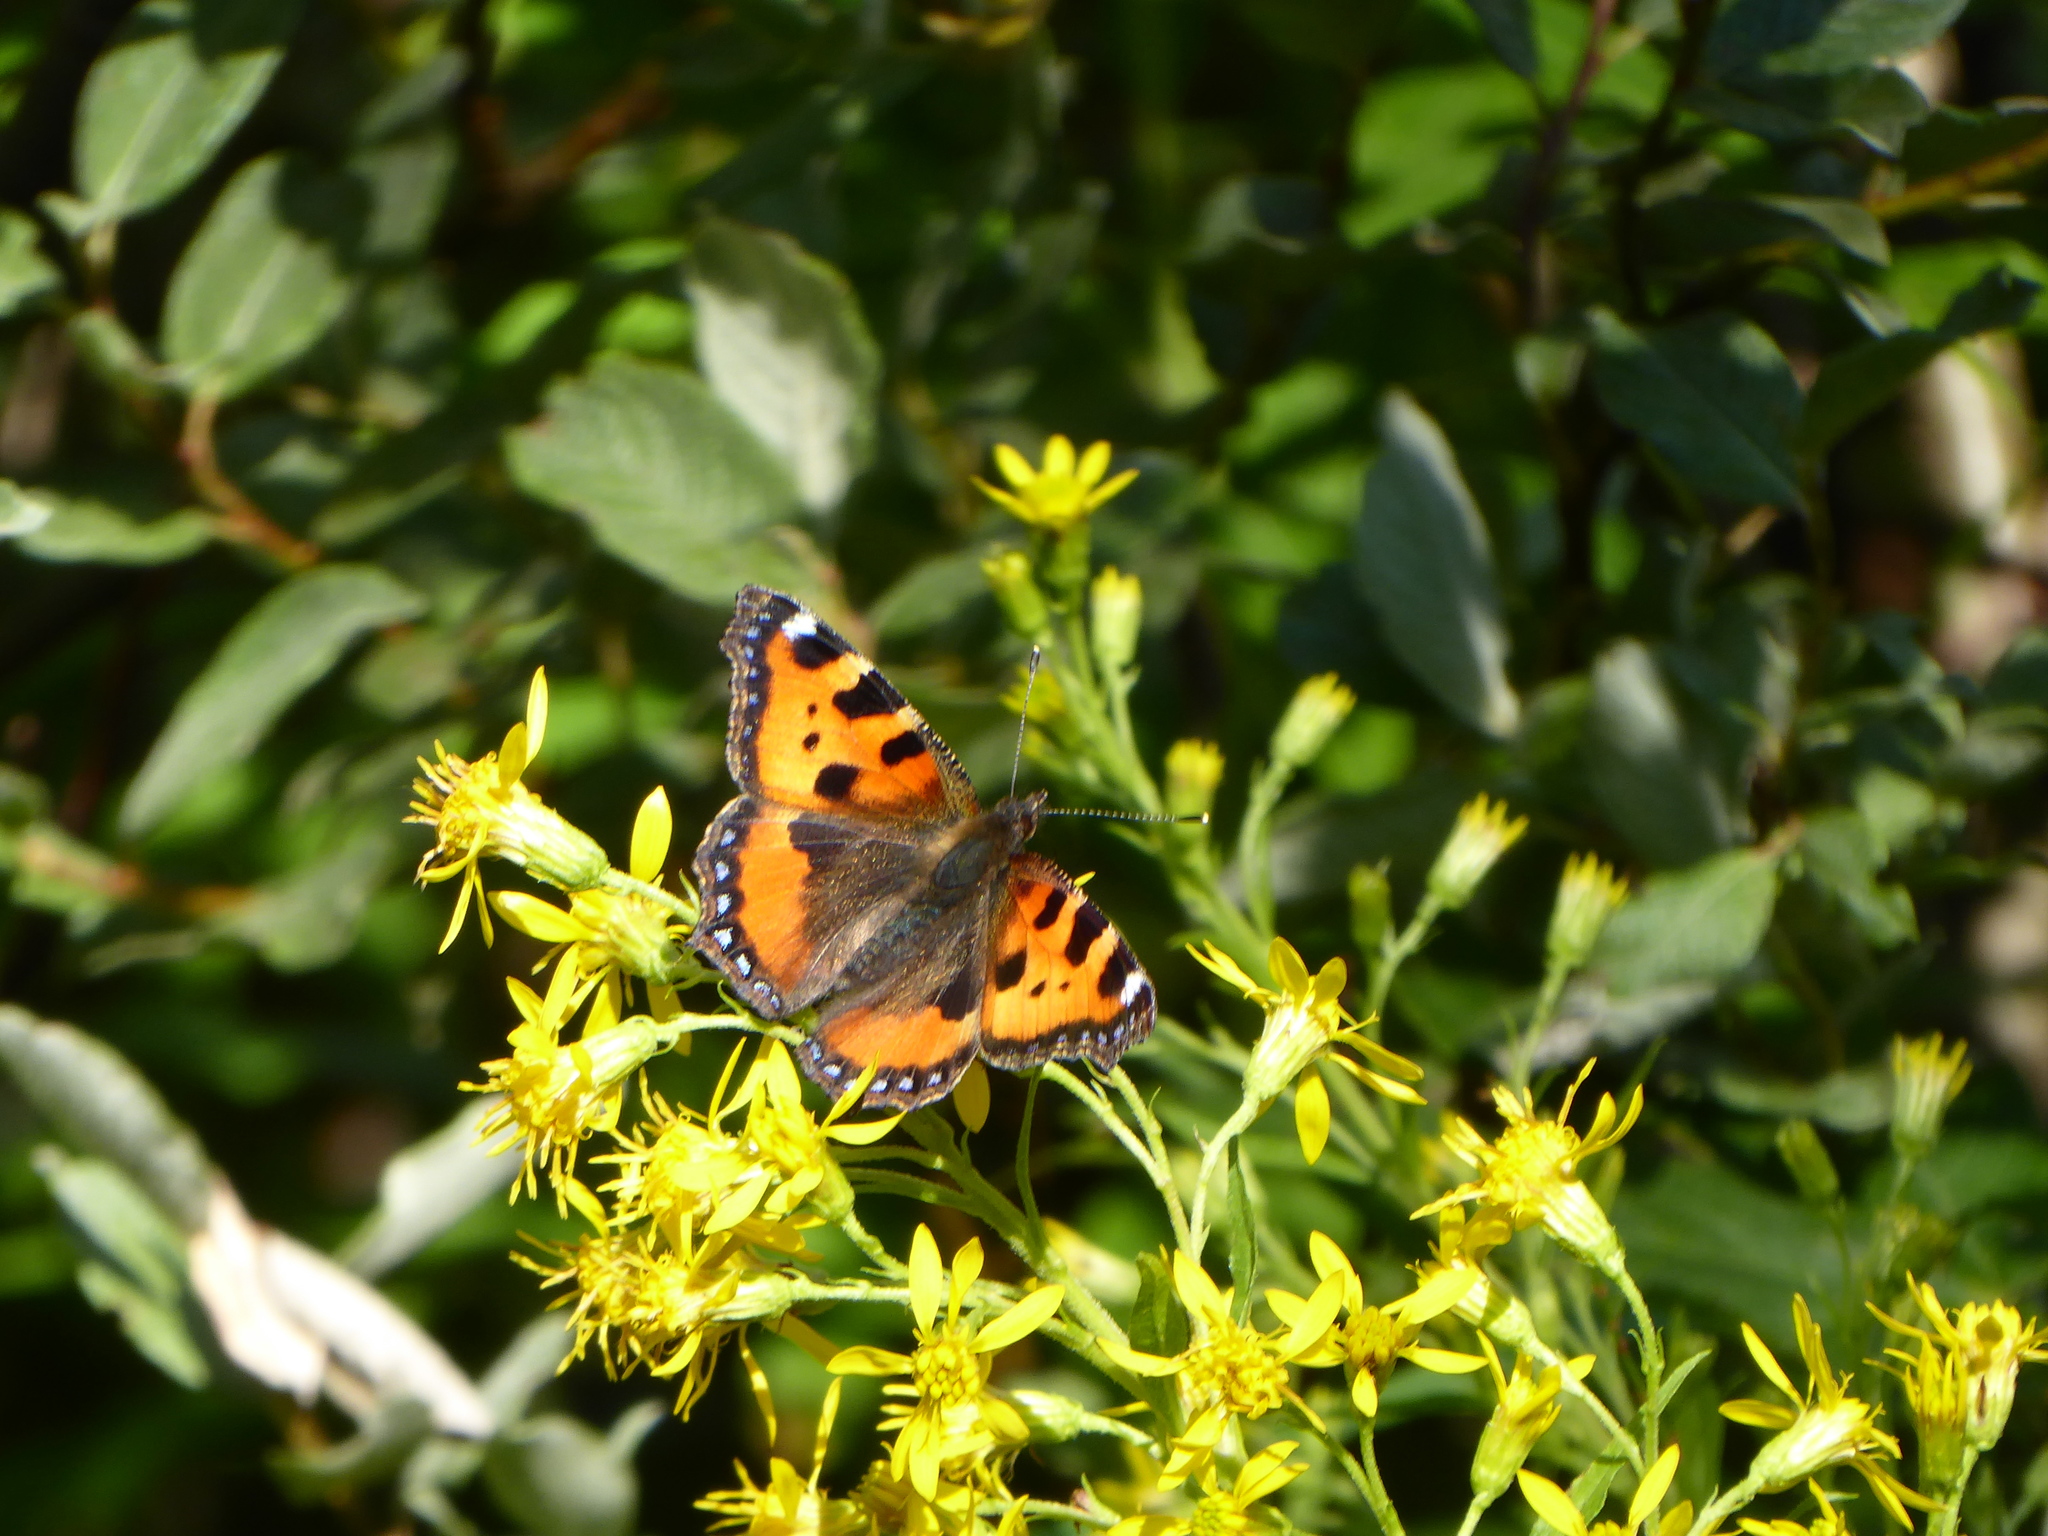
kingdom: Animalia
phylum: Arthropoda
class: Insecta
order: Lepidoptera
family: Nymphalidae
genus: Aglais
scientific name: Aglais urticae
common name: Small tortoiseshell
